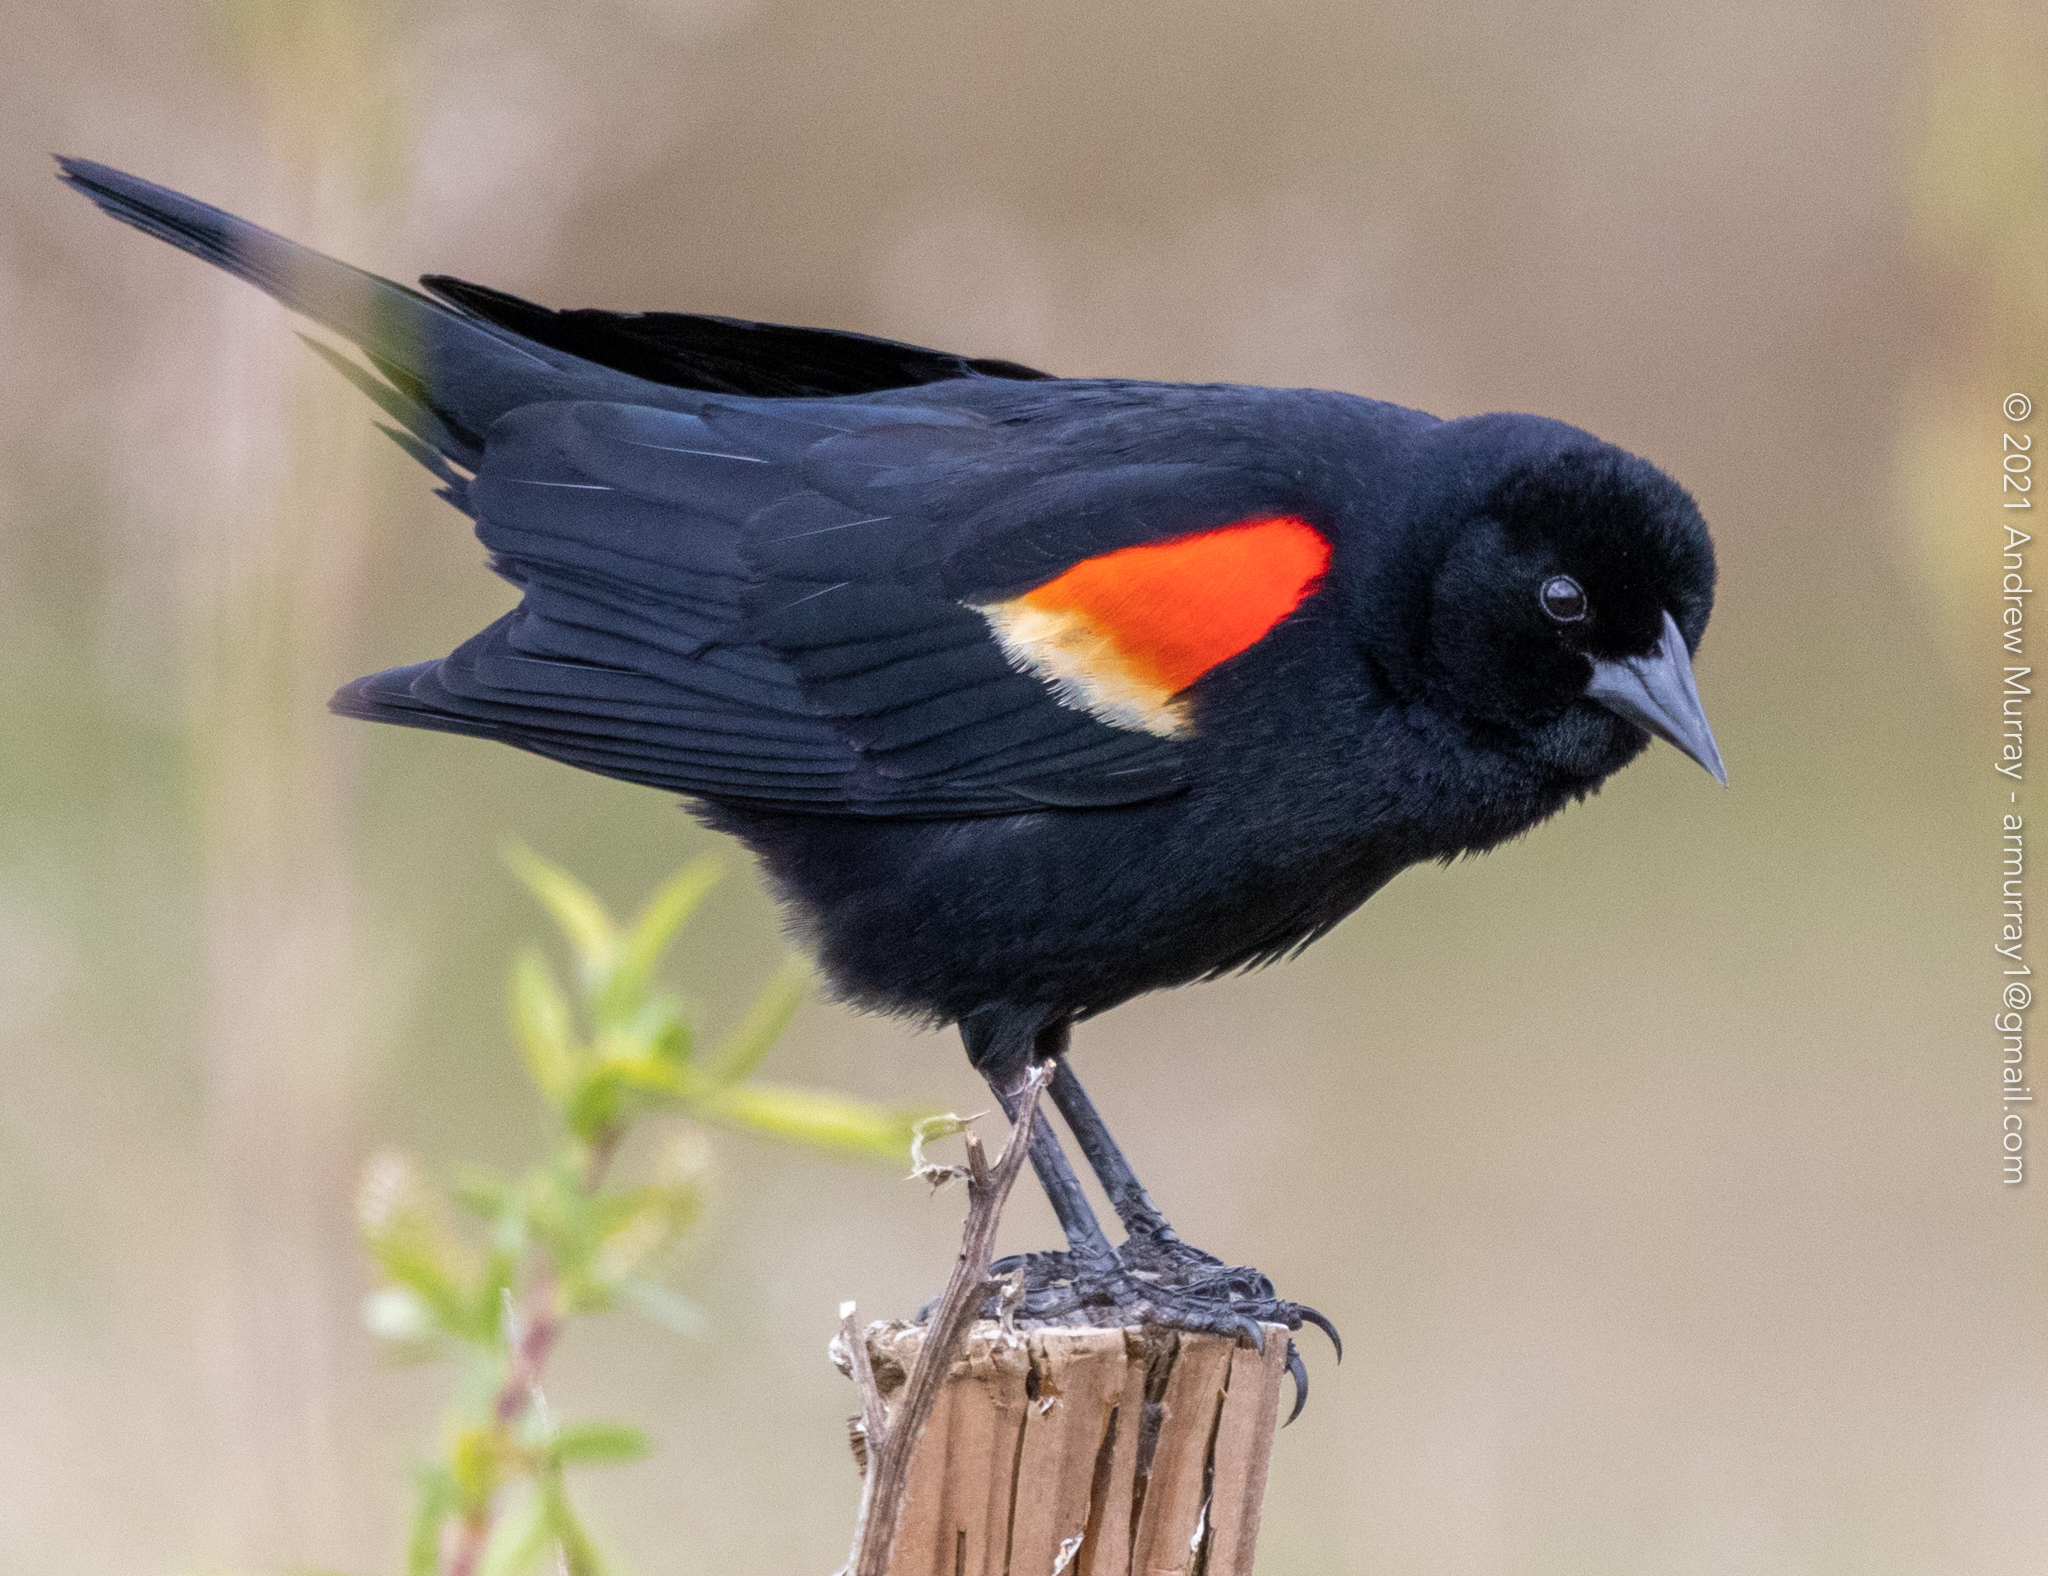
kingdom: Animalia
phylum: Chordata
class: Aves
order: Passeriformes
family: Icteridae
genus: Agelaius
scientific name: Agelaius phoeniceus
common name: Red-winged blackbird
